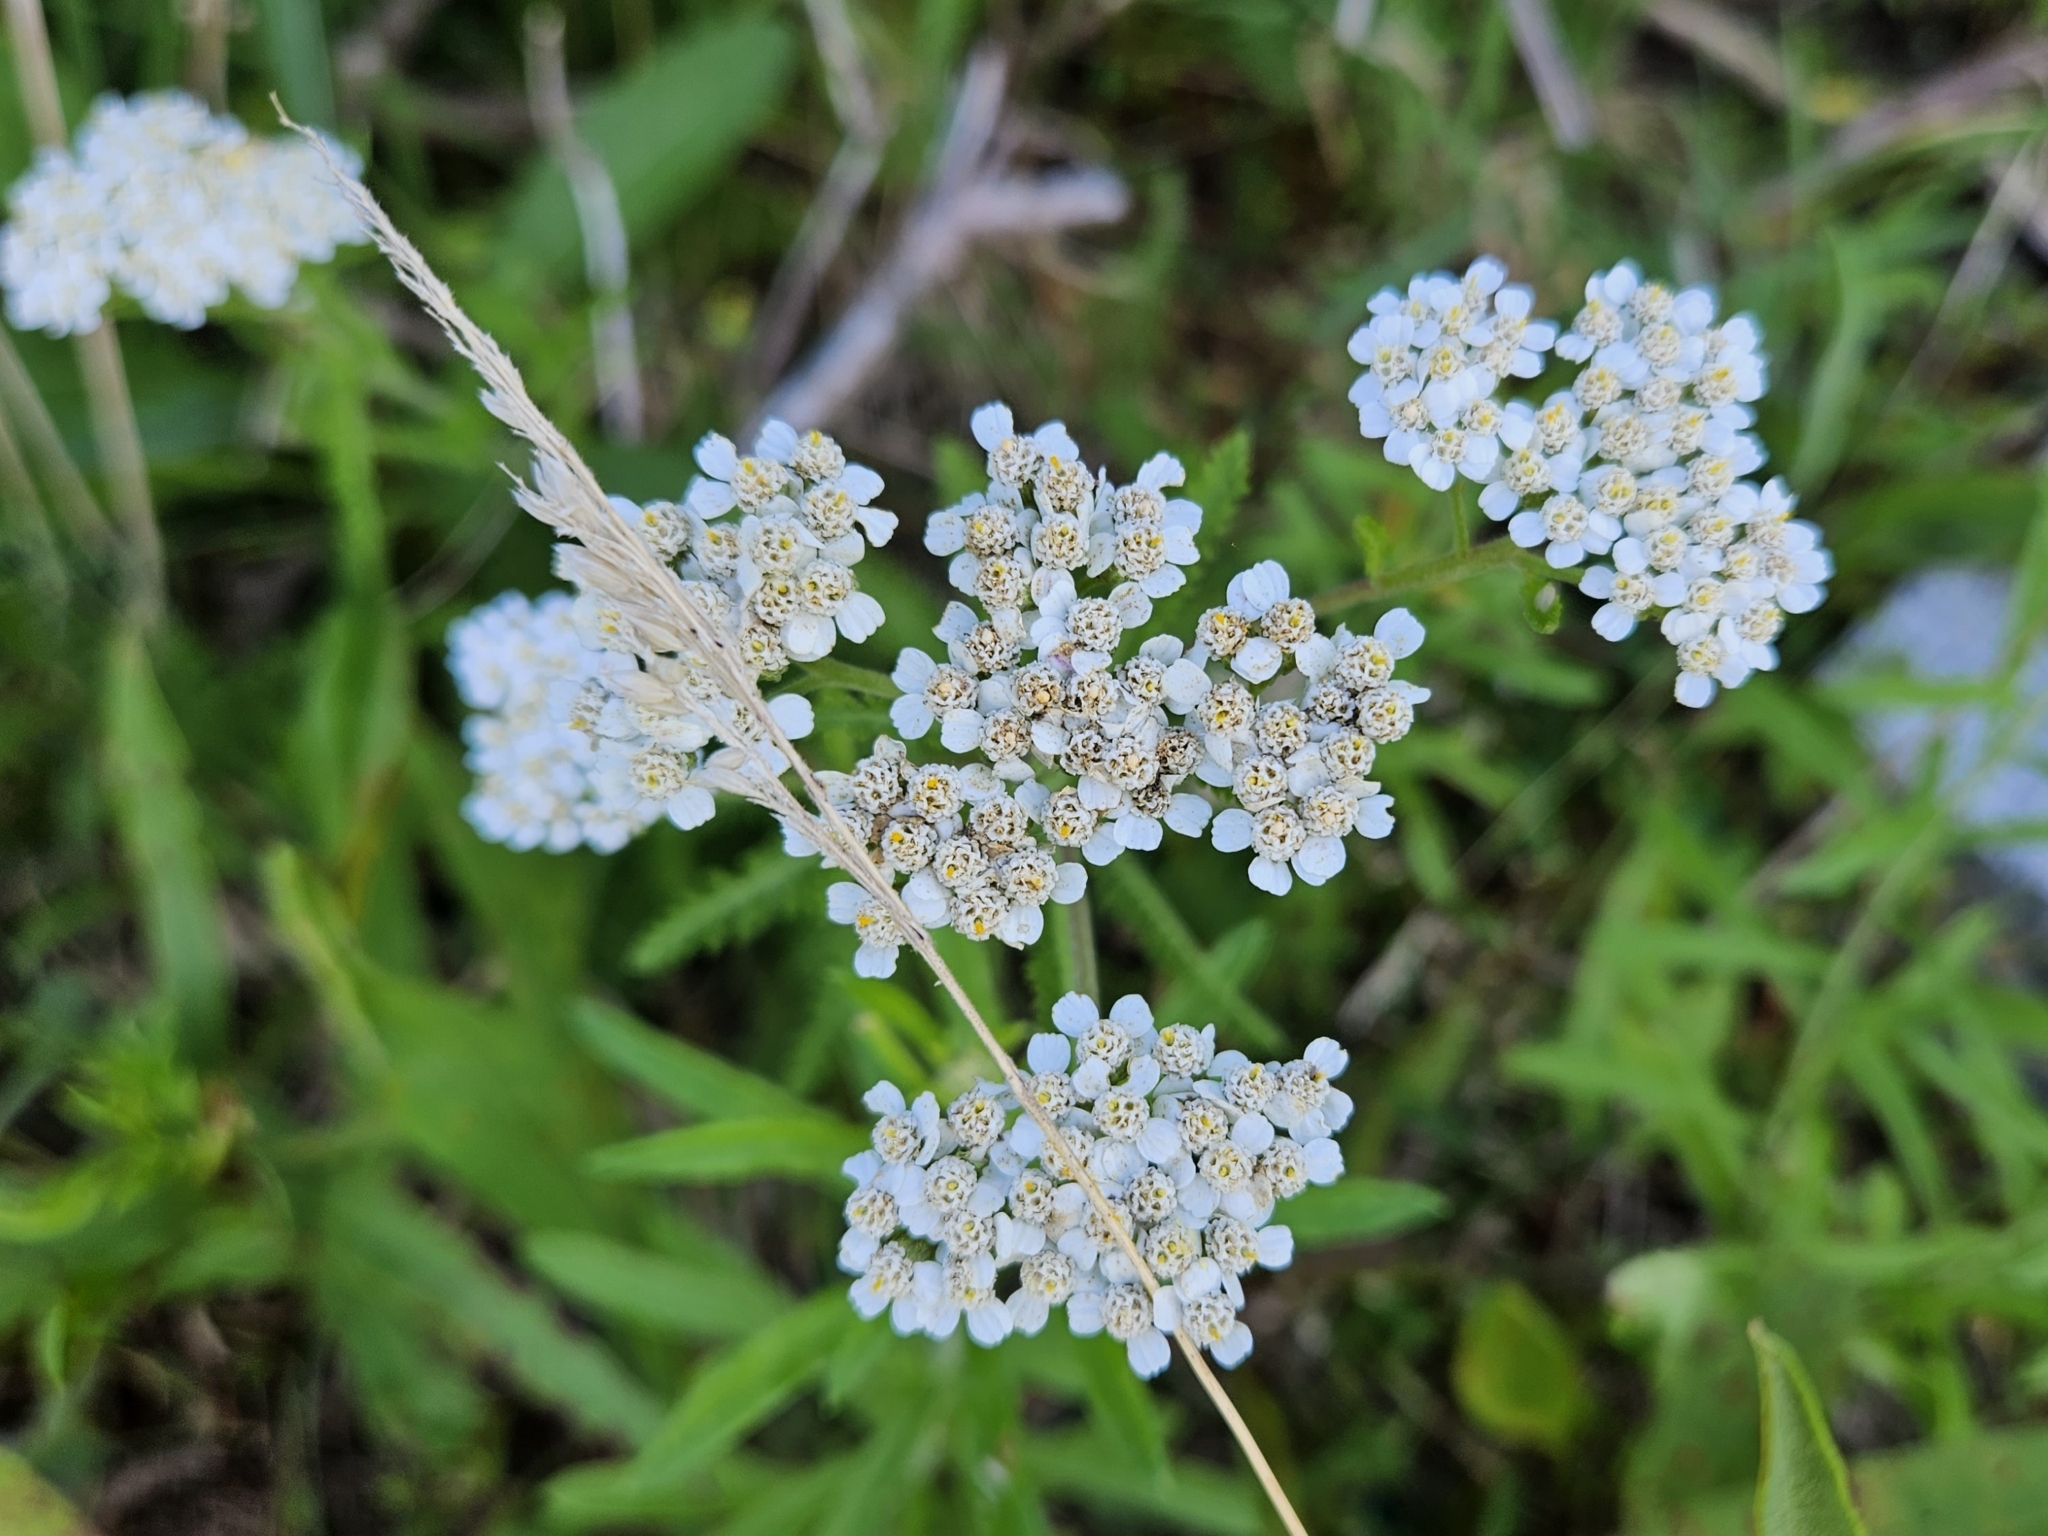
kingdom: Plantae
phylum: Tracheophyta
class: Magnoliopsida
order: Asterales
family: Asteraceae
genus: Achillea
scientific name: Achillea millefolium
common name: Yarrow
